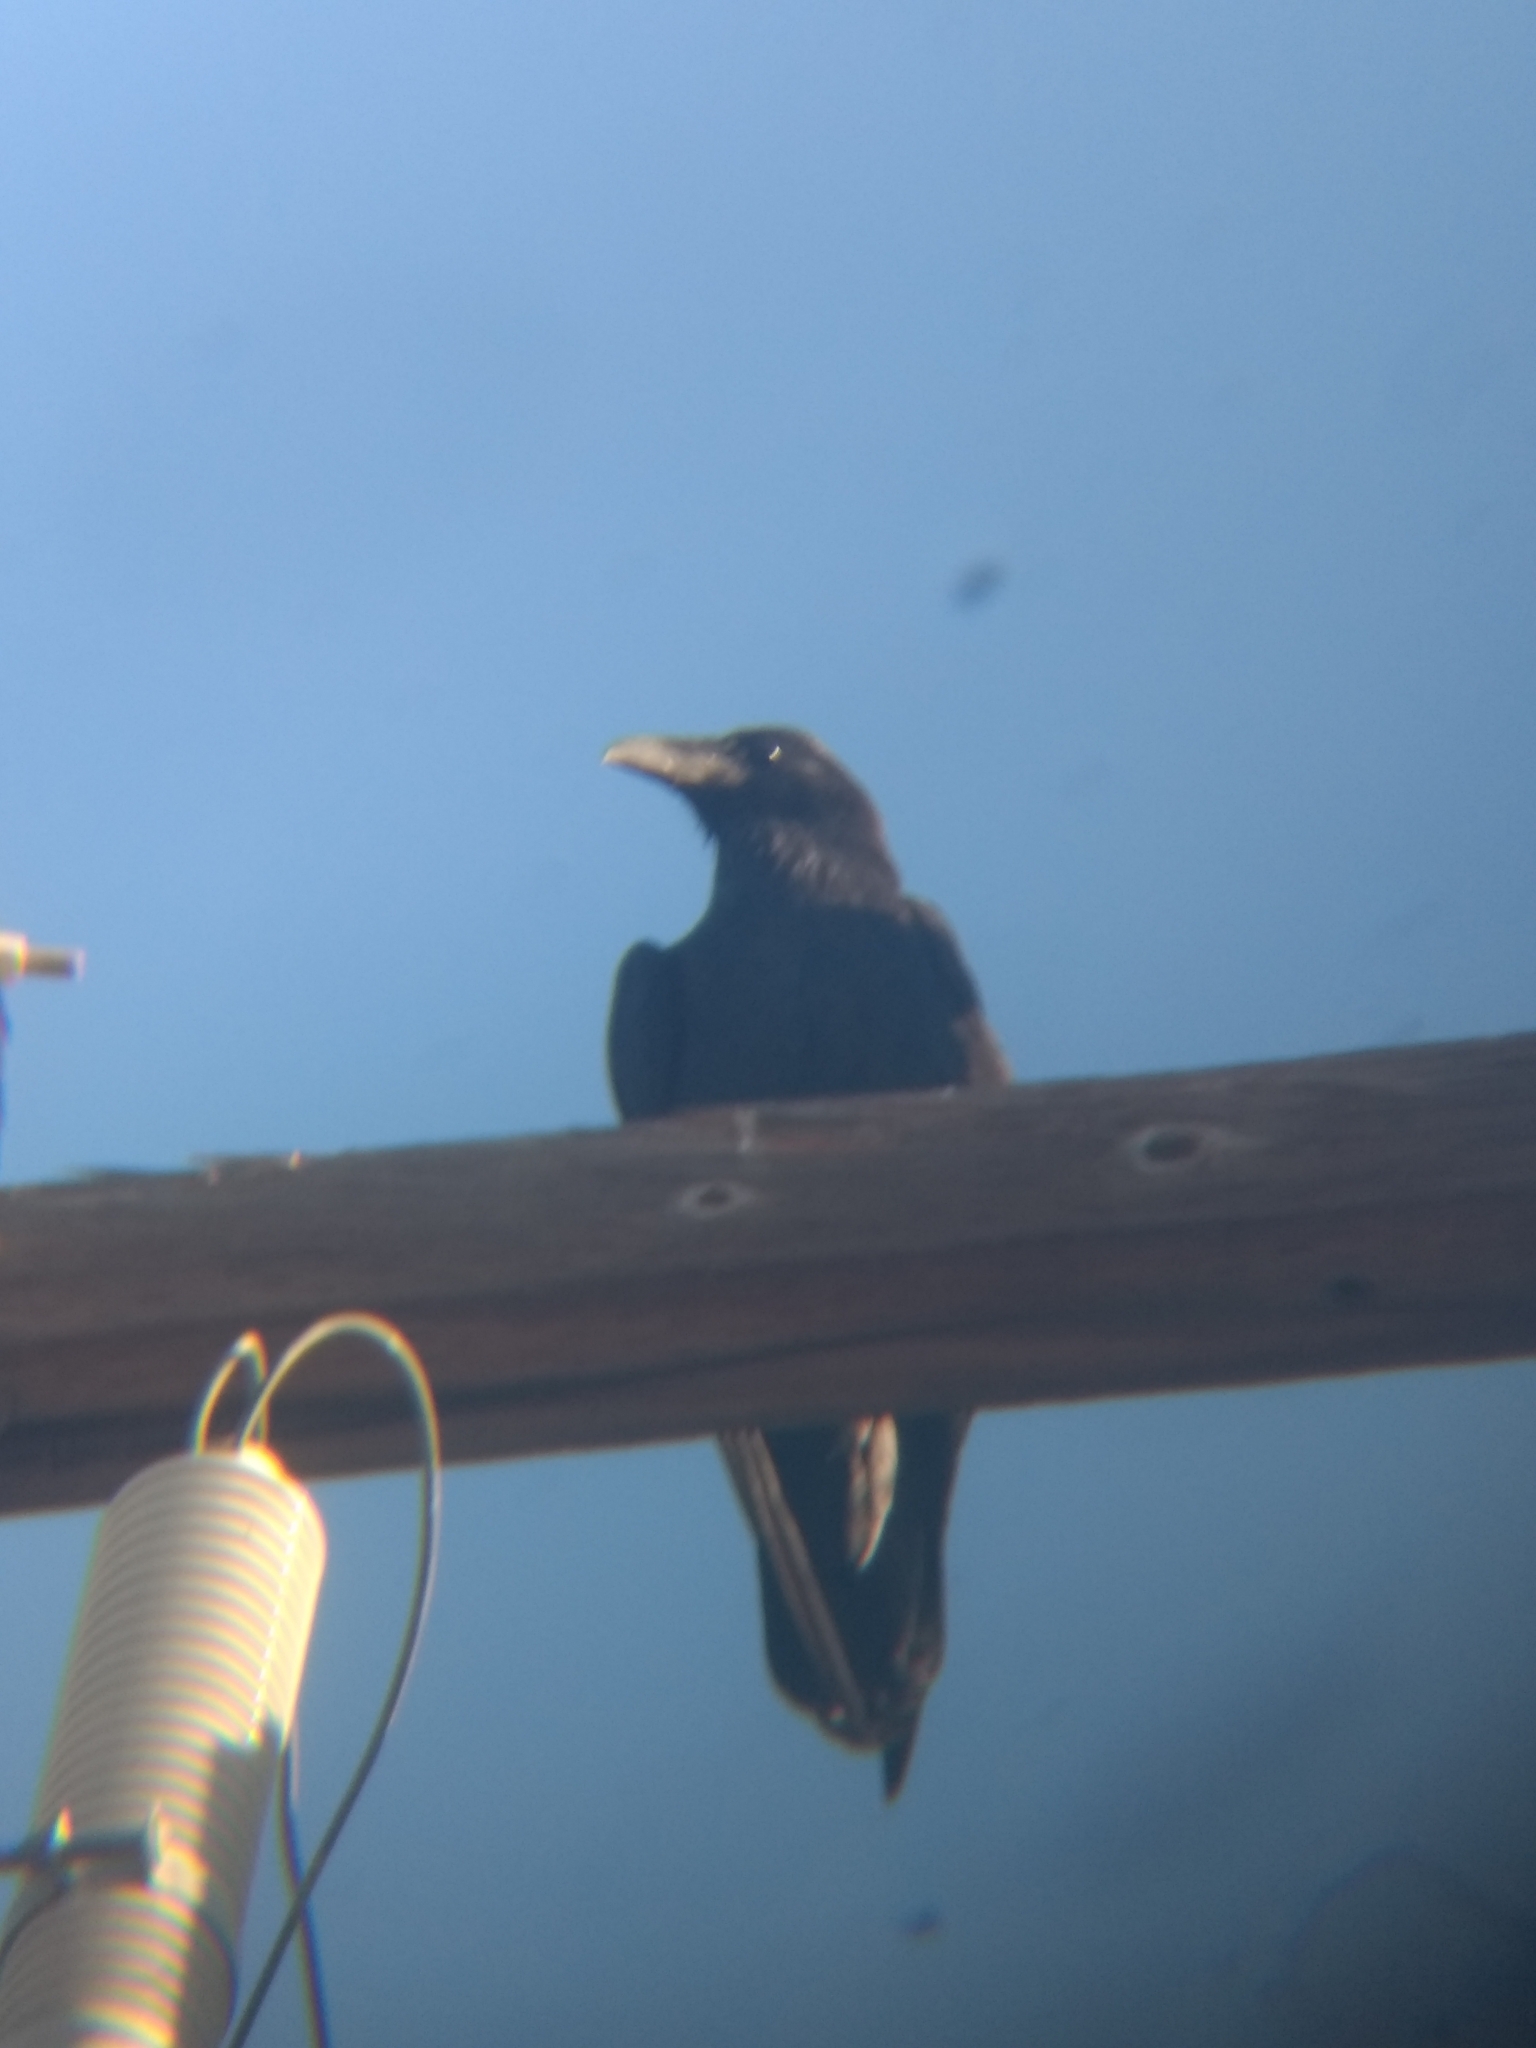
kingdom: Animalia
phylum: Chordata
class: Aves
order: Passeriformes
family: Corvidae
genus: Corvus
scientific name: Corvus corax
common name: Common raven
